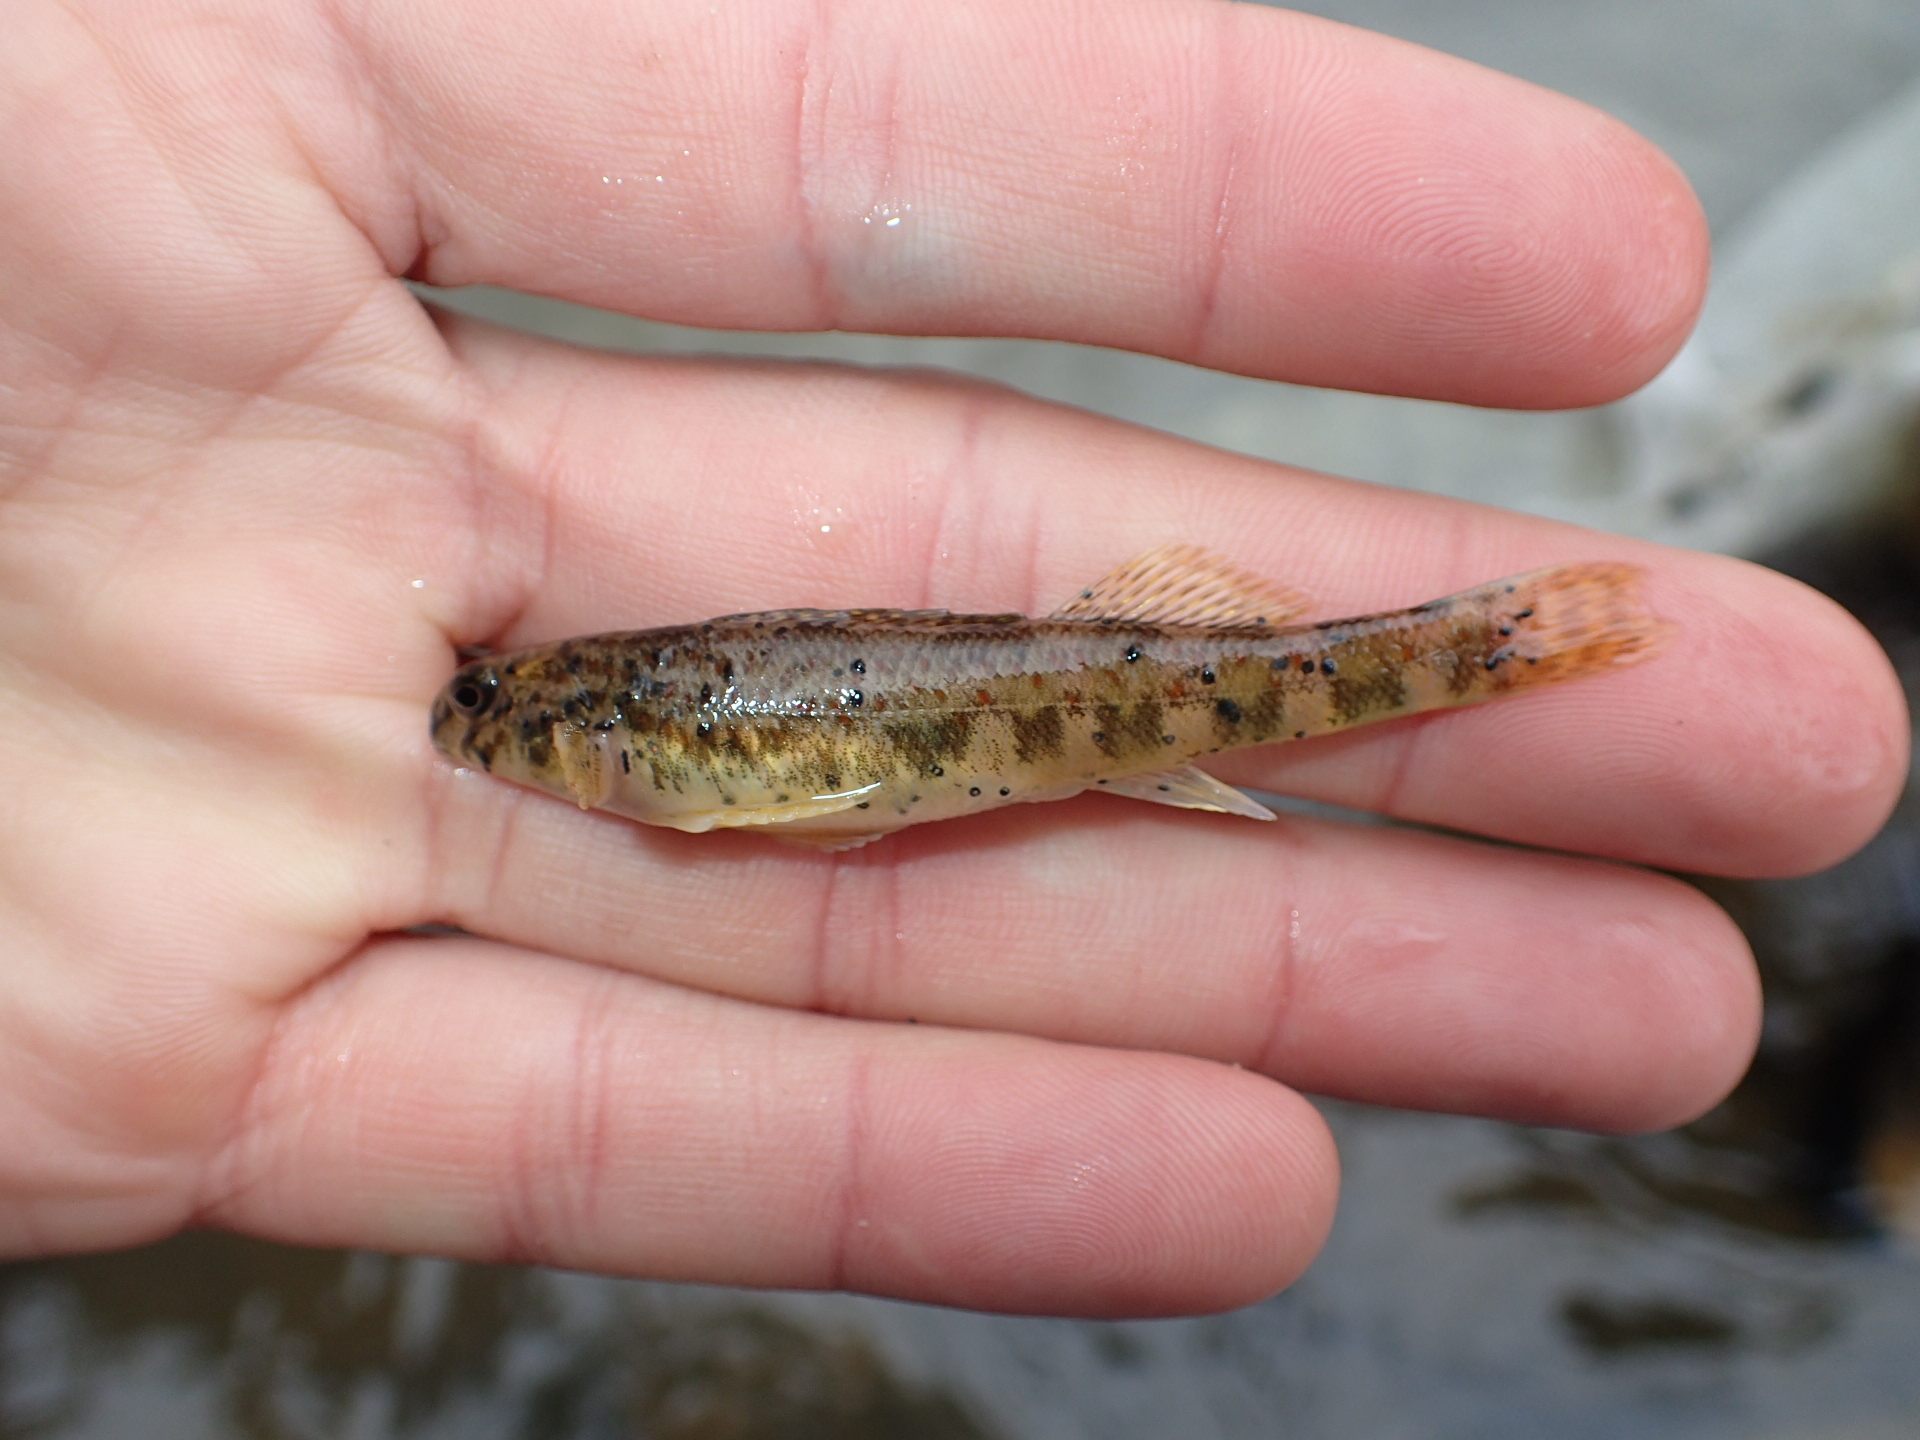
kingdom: Animalia
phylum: Chordata
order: Perciformes
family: Percidae
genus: Etheostoma
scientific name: Etheostoma blennioides
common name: Greenside darter
